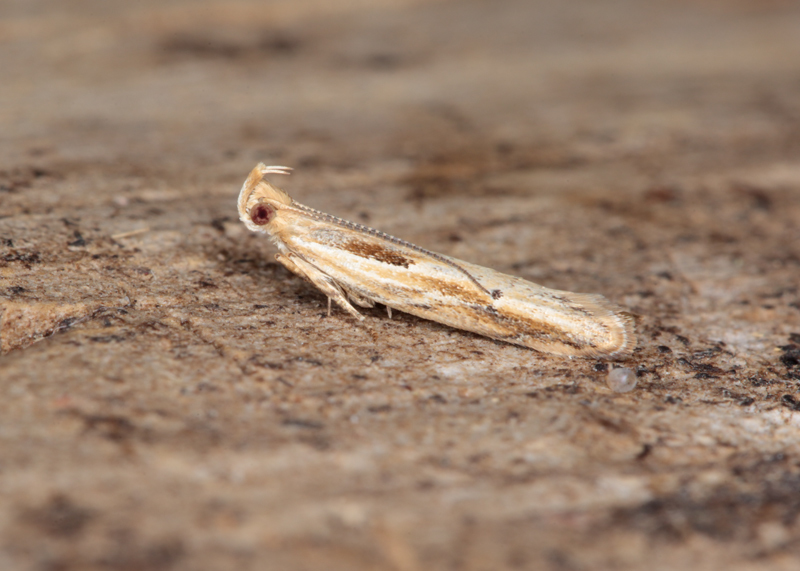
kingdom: Animalia
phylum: Arthropoda
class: Insecta
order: Lepidoptera
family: Depressariidae
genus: Eutorna
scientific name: Eutorna symmorpha
